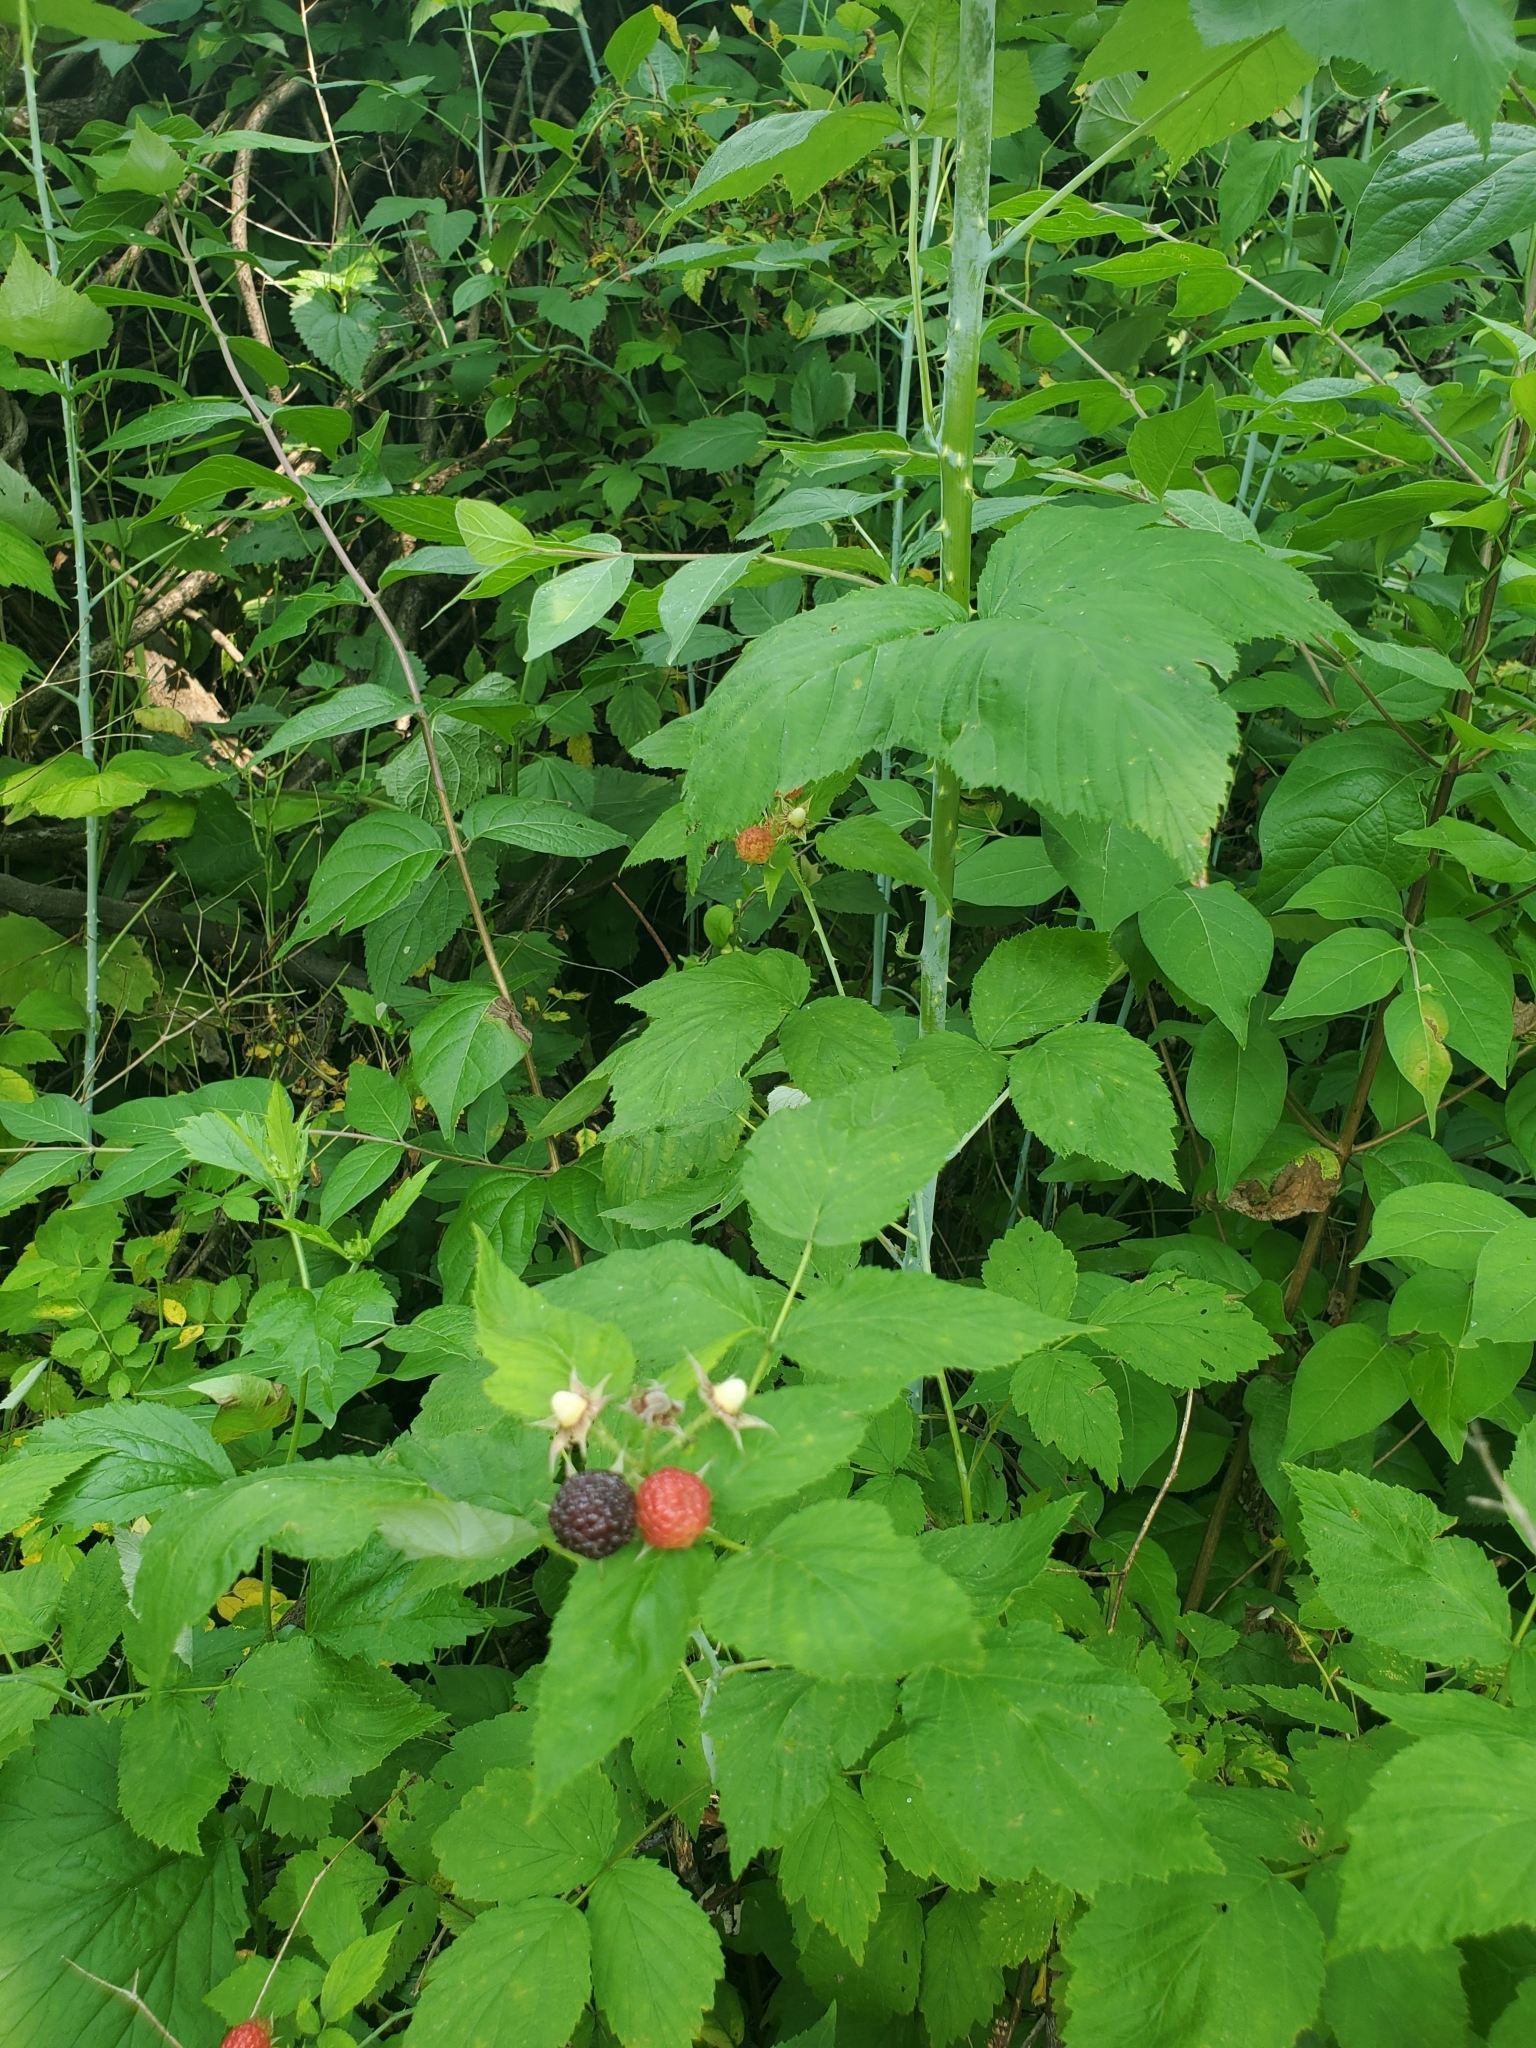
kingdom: Plantae
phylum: Tracheophyta
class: Magnoliopsida
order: Rosales
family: Rosaceae
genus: Rubus
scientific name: Rubus occidentalis
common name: Black raspberry
